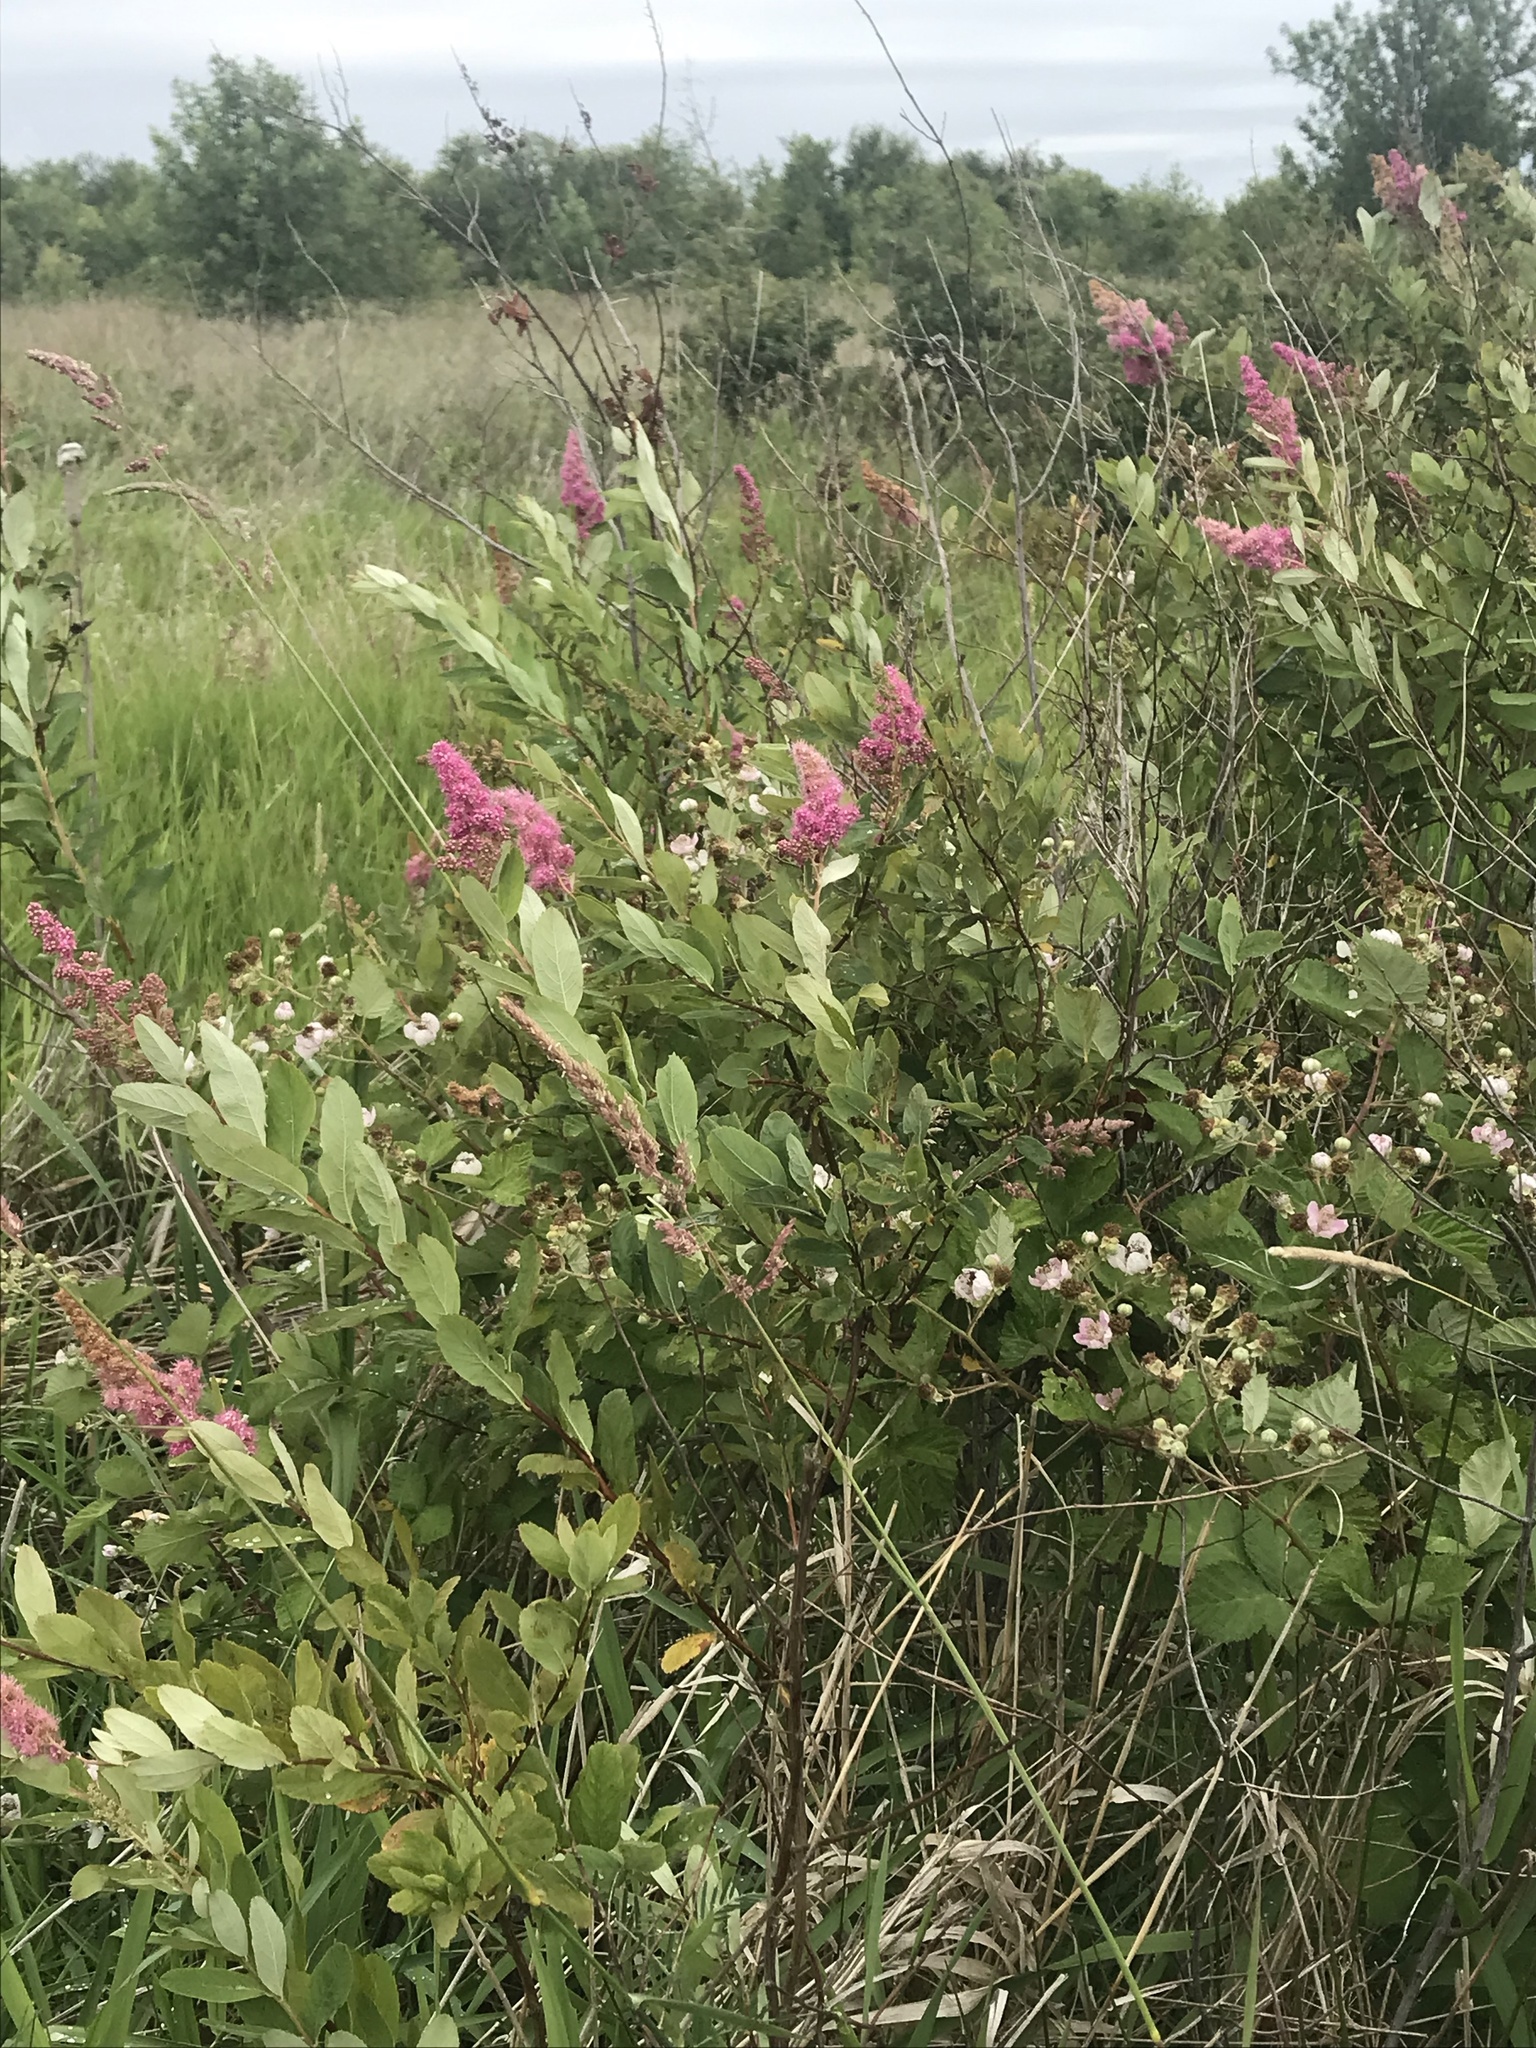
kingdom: Plantae
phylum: Tracheophyta
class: Magnoliopsida
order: Rosales
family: Rosaceae
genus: Spiraea
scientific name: Spiraea douglasii
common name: Steeplebush
